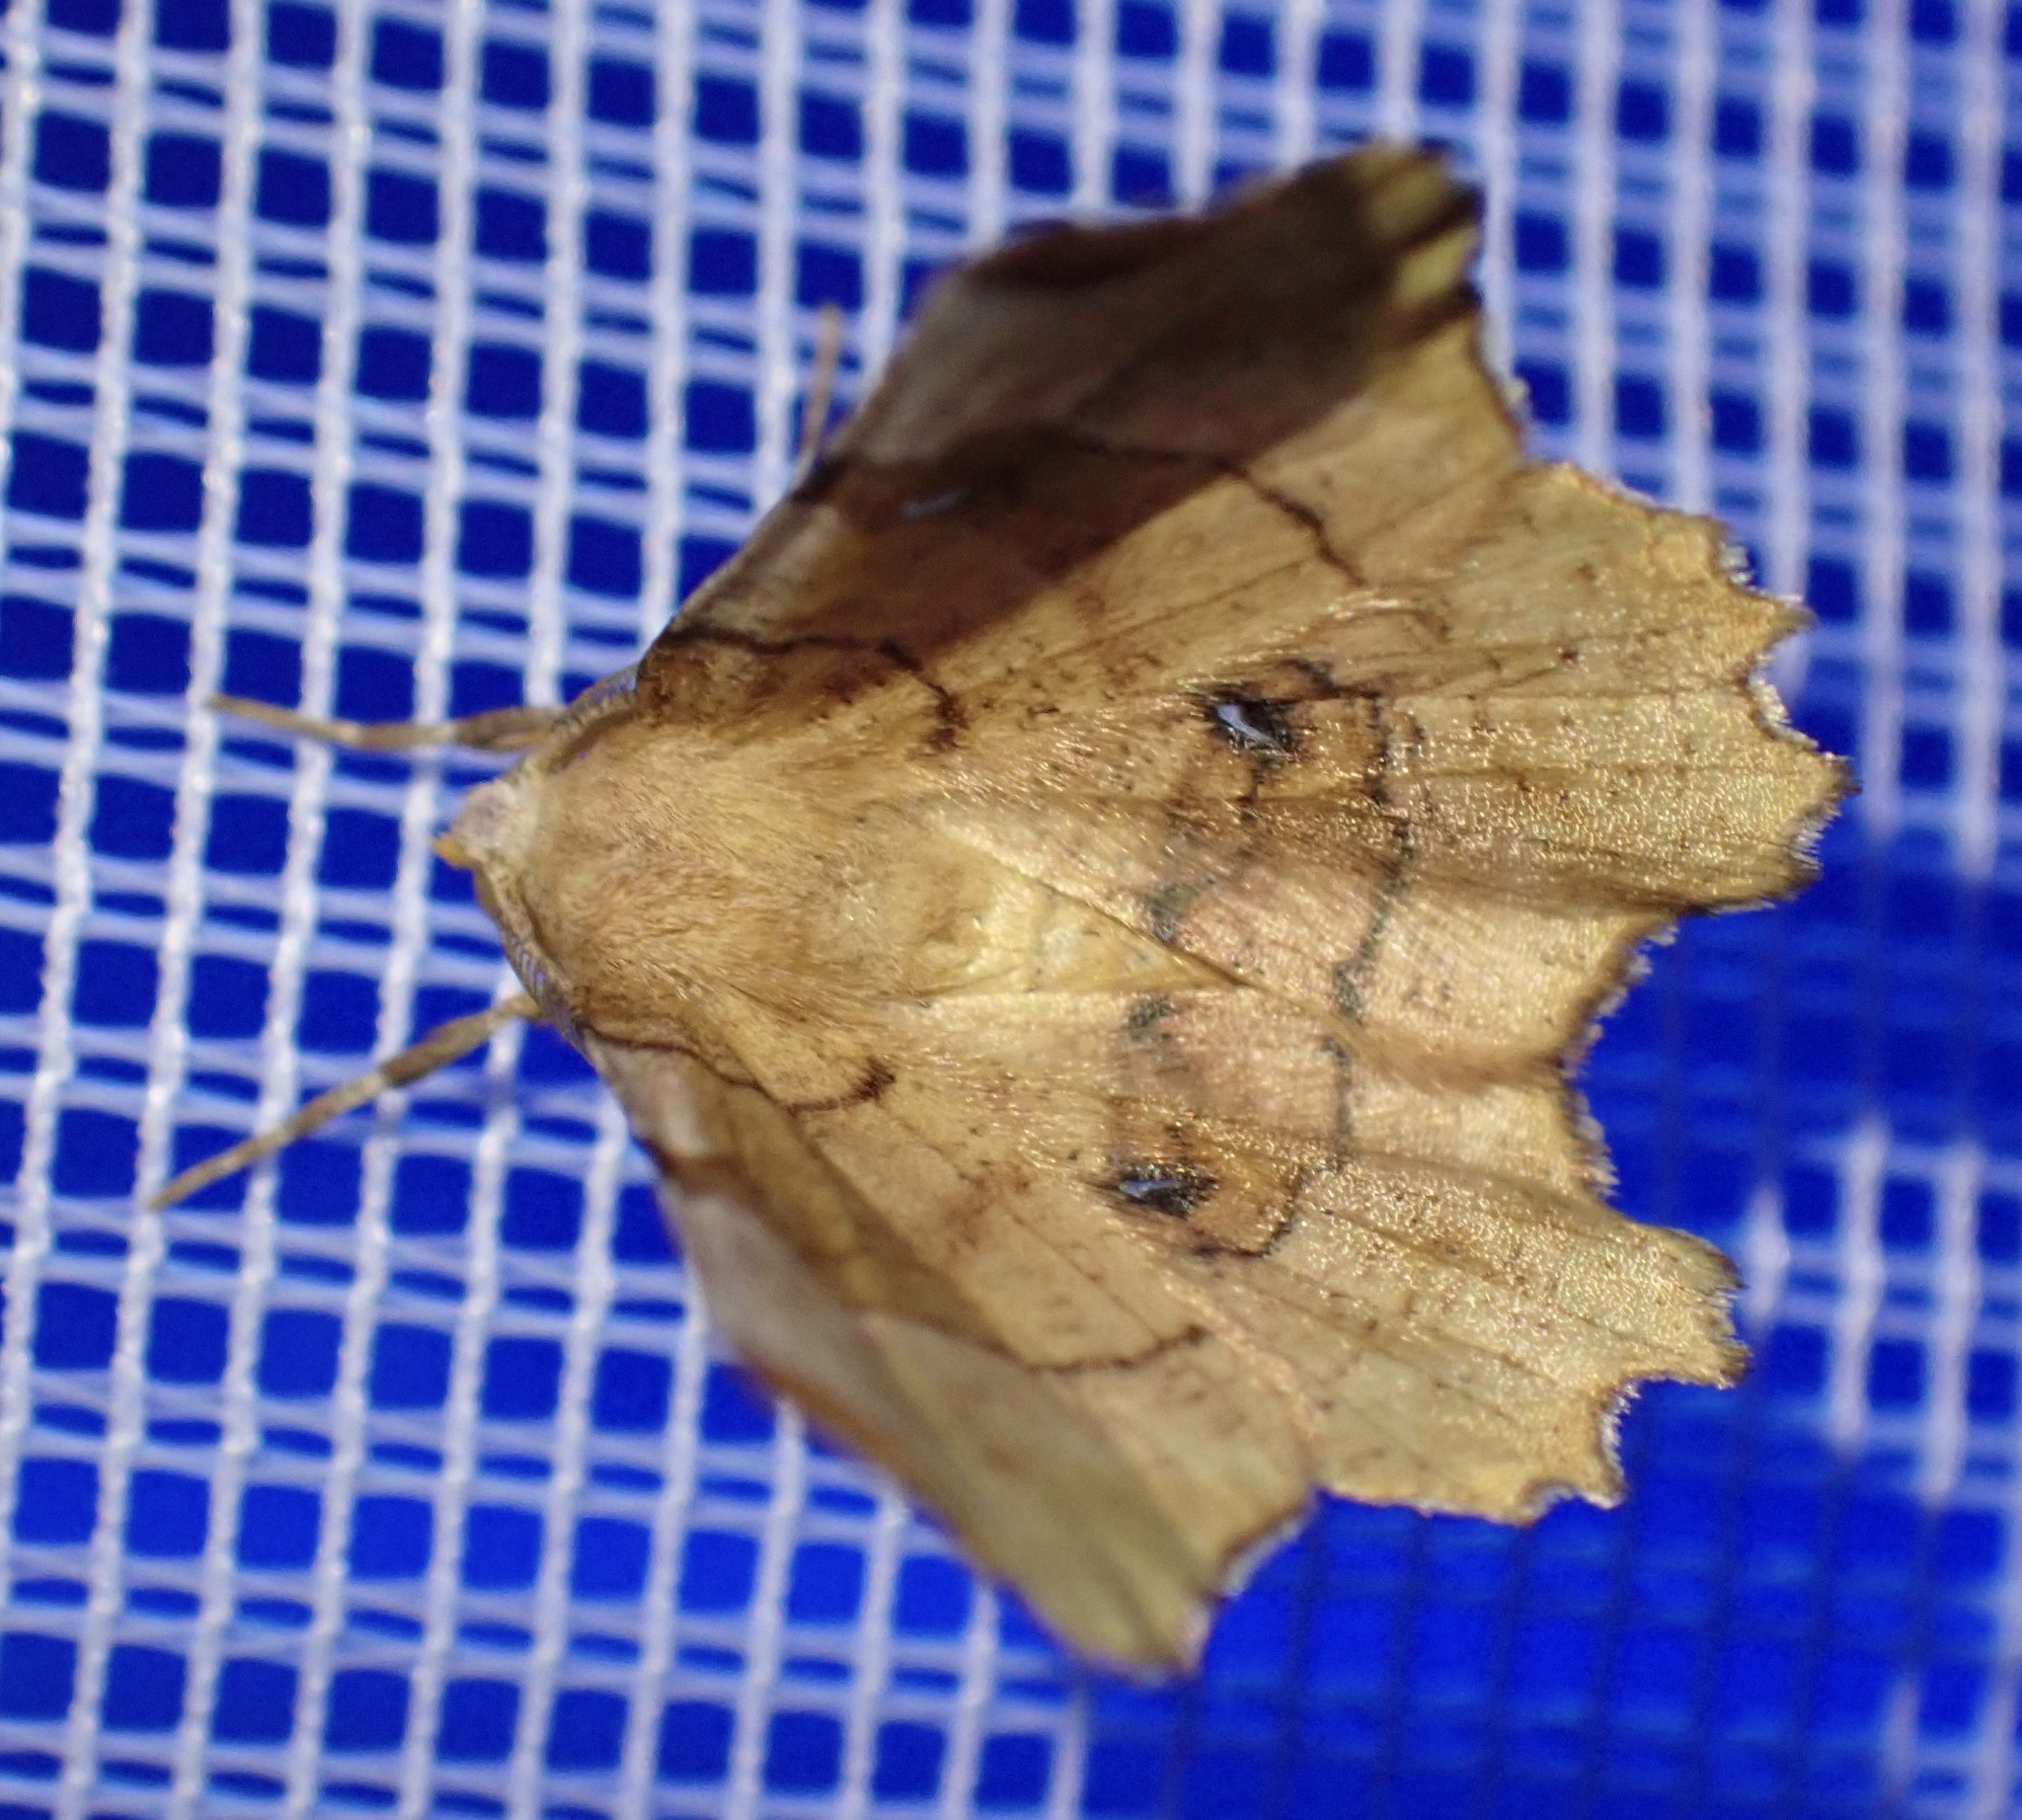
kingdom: Animalia
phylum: Arthropoda
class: Insecta
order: Lepidoptera
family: Geometridae
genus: Selenia
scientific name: Selenia lunularia
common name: Lunar thorn
